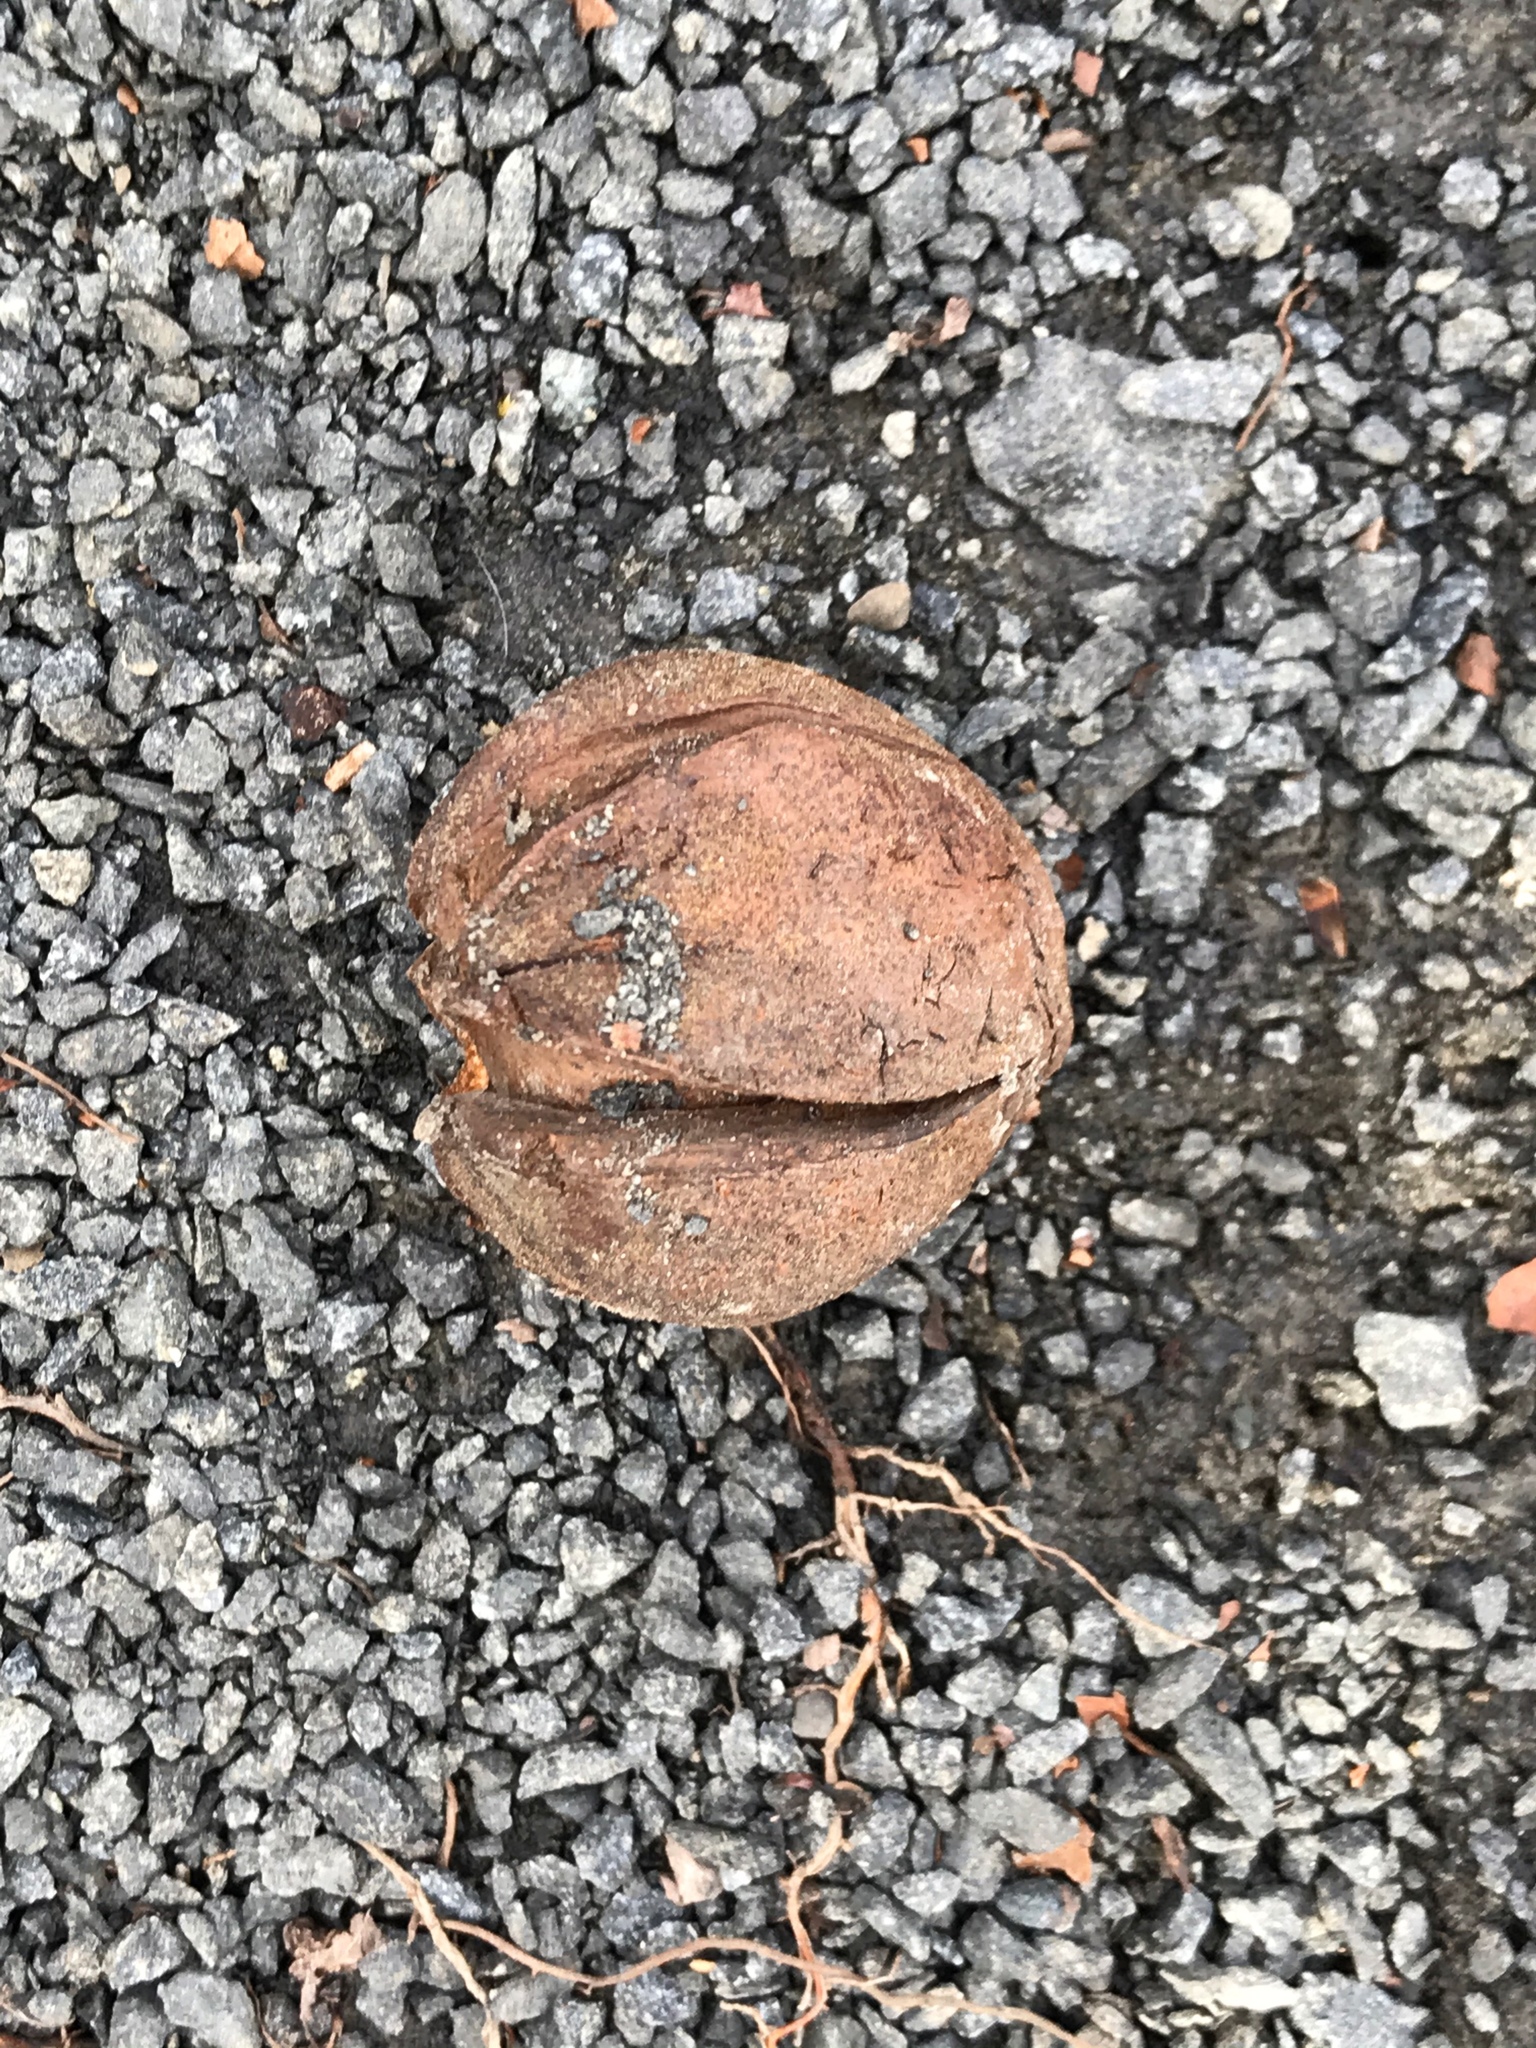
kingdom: Plantae
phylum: Tracheophyta
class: Magnoliopsida
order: Fagales
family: Juglandaceae
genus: Carya
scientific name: Carya ovata
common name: Shagbark hickory
